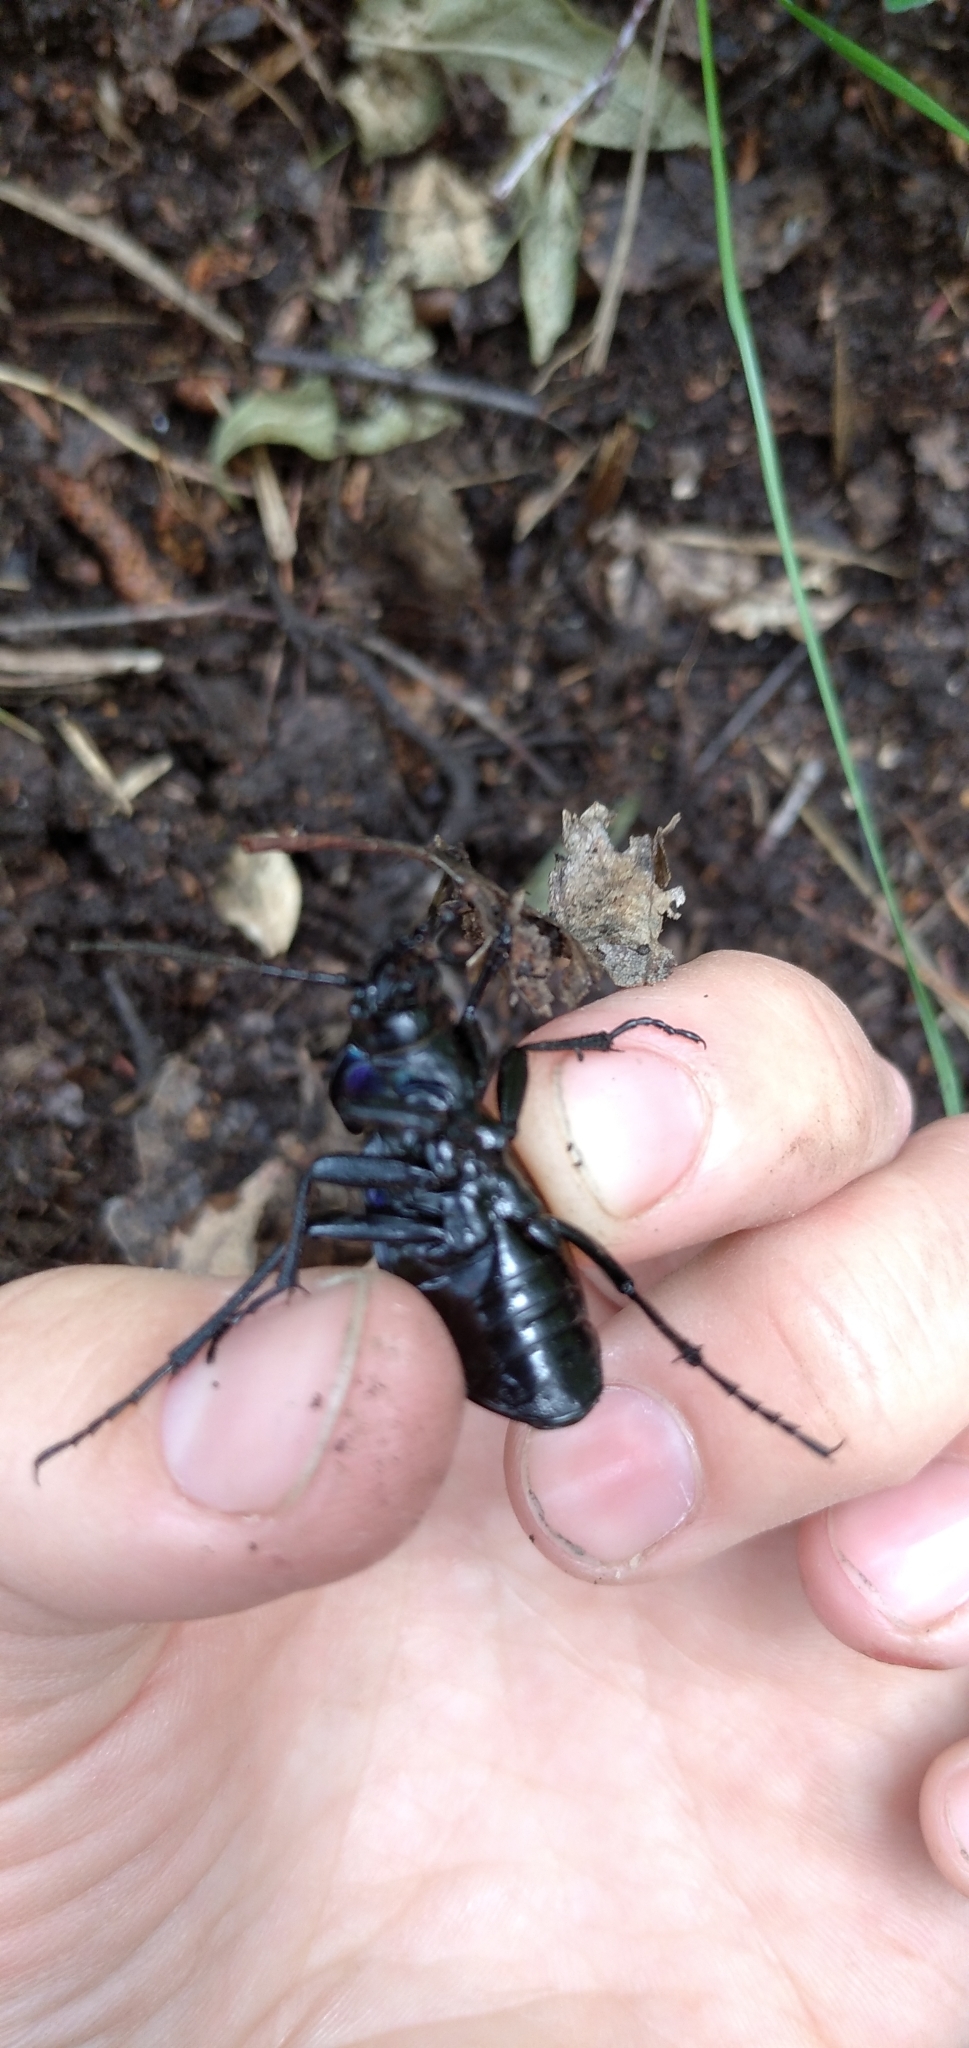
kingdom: Animalia
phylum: Arthropoda
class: Insecta
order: Coleoptera
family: Carabidae
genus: Carabus
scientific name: Carabus schoenherri
